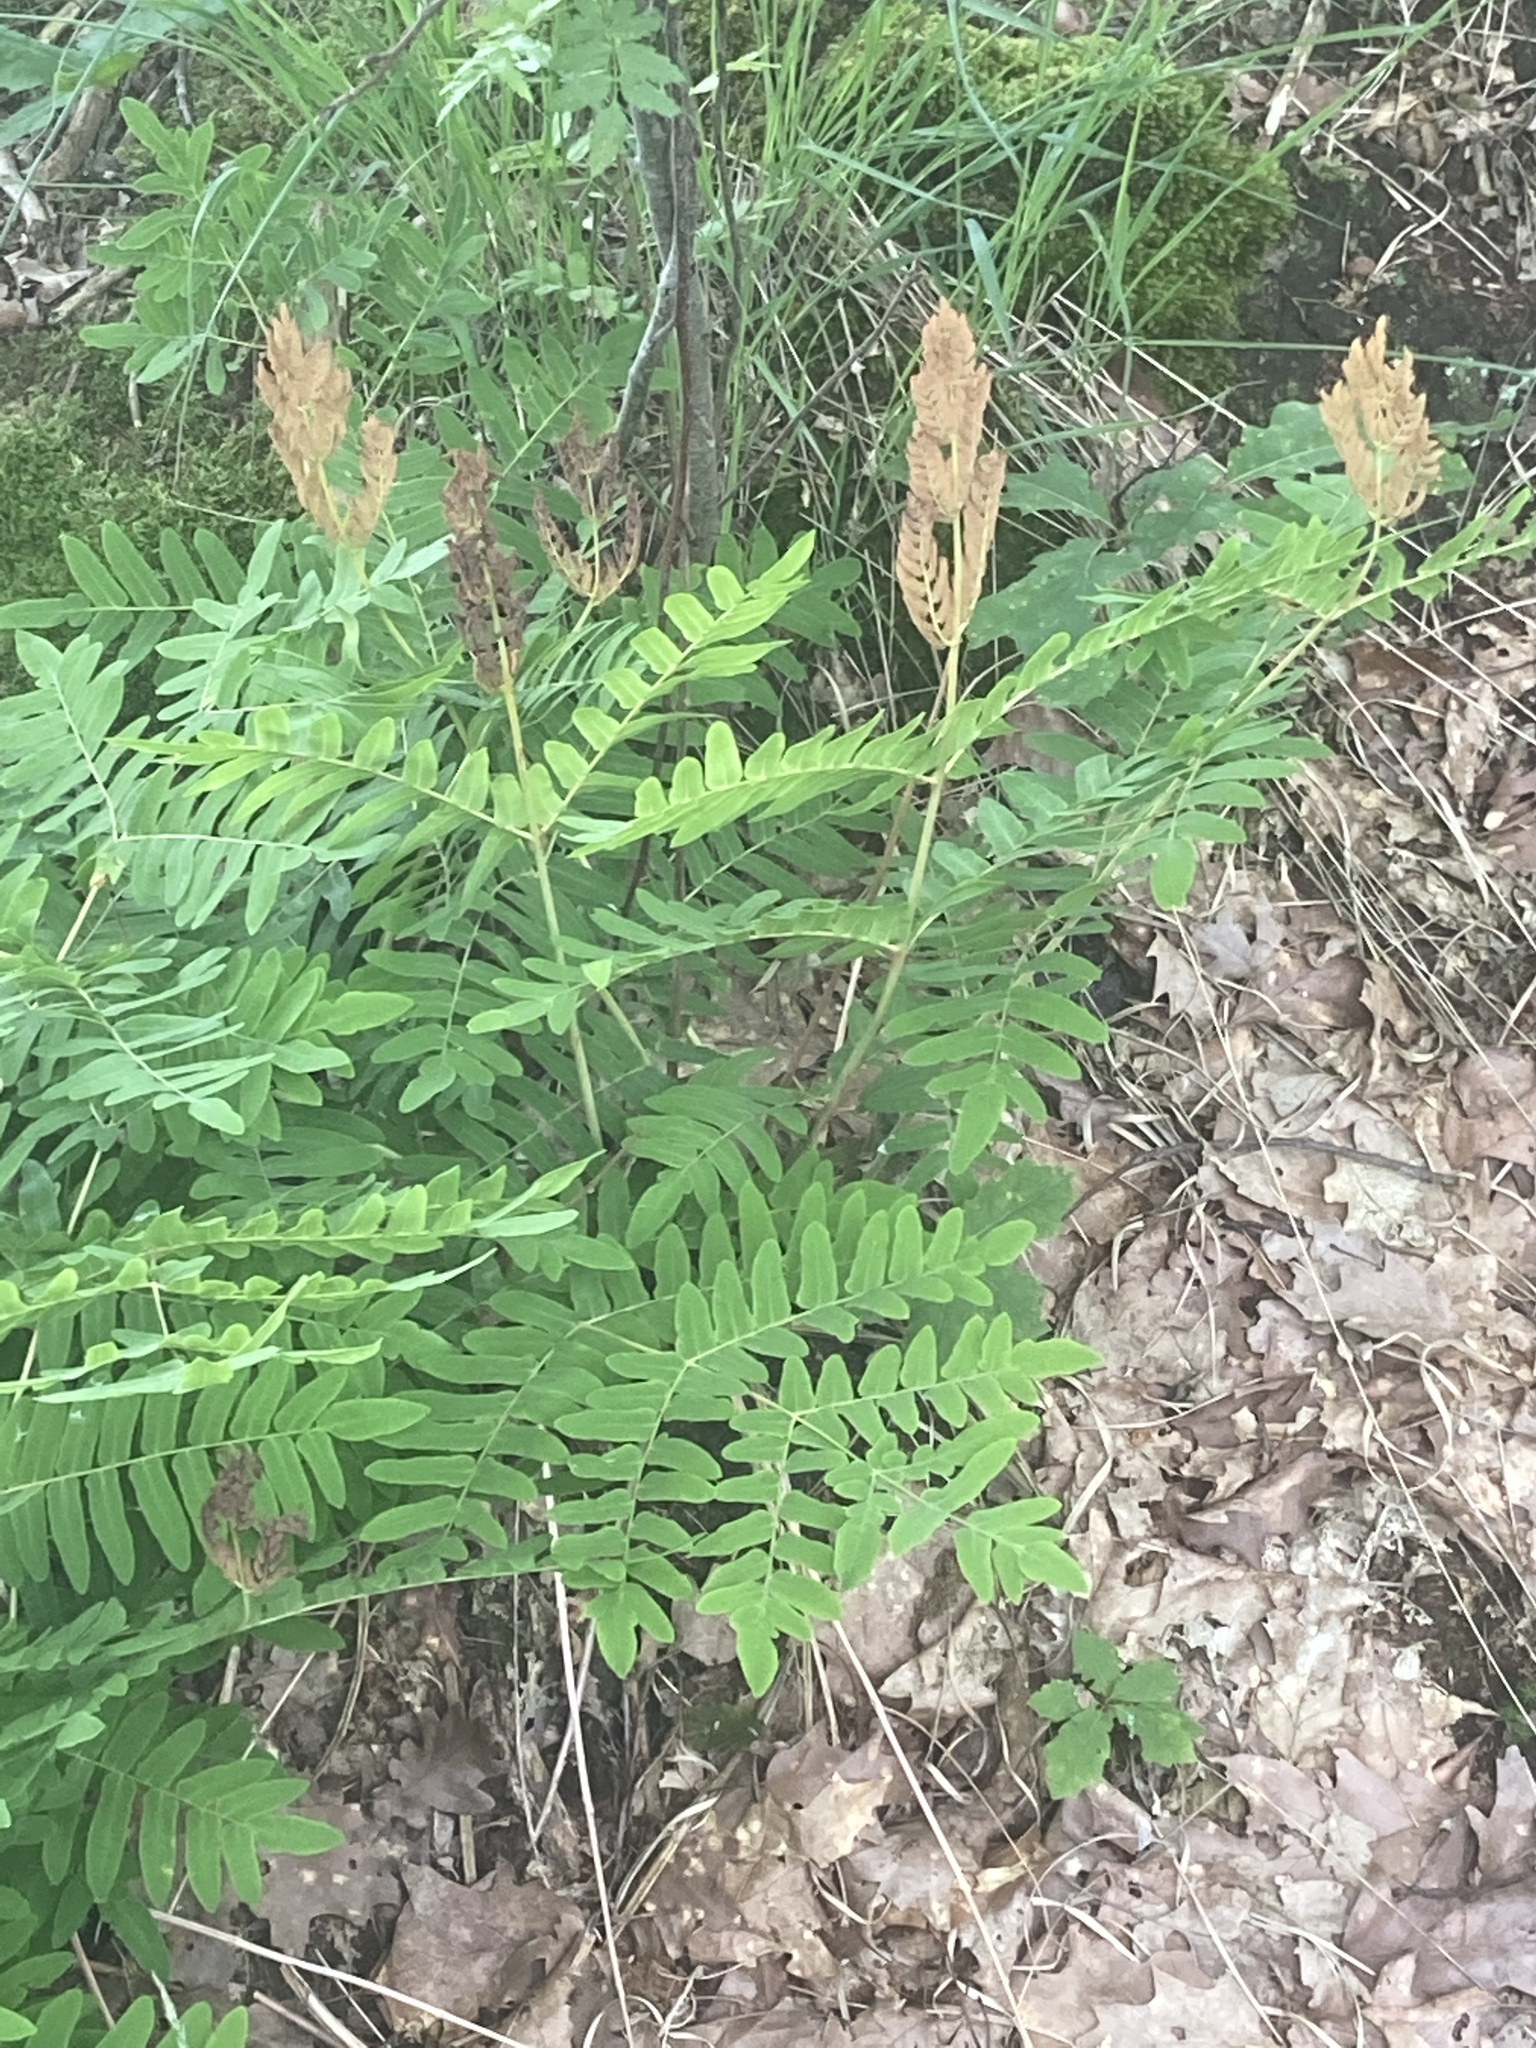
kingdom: Plantae
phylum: Tracheophyta
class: Polypodiopsida
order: Osmundales
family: Osmundaceae
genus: Osmunda
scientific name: Osmunda regalis
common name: Royal fern
